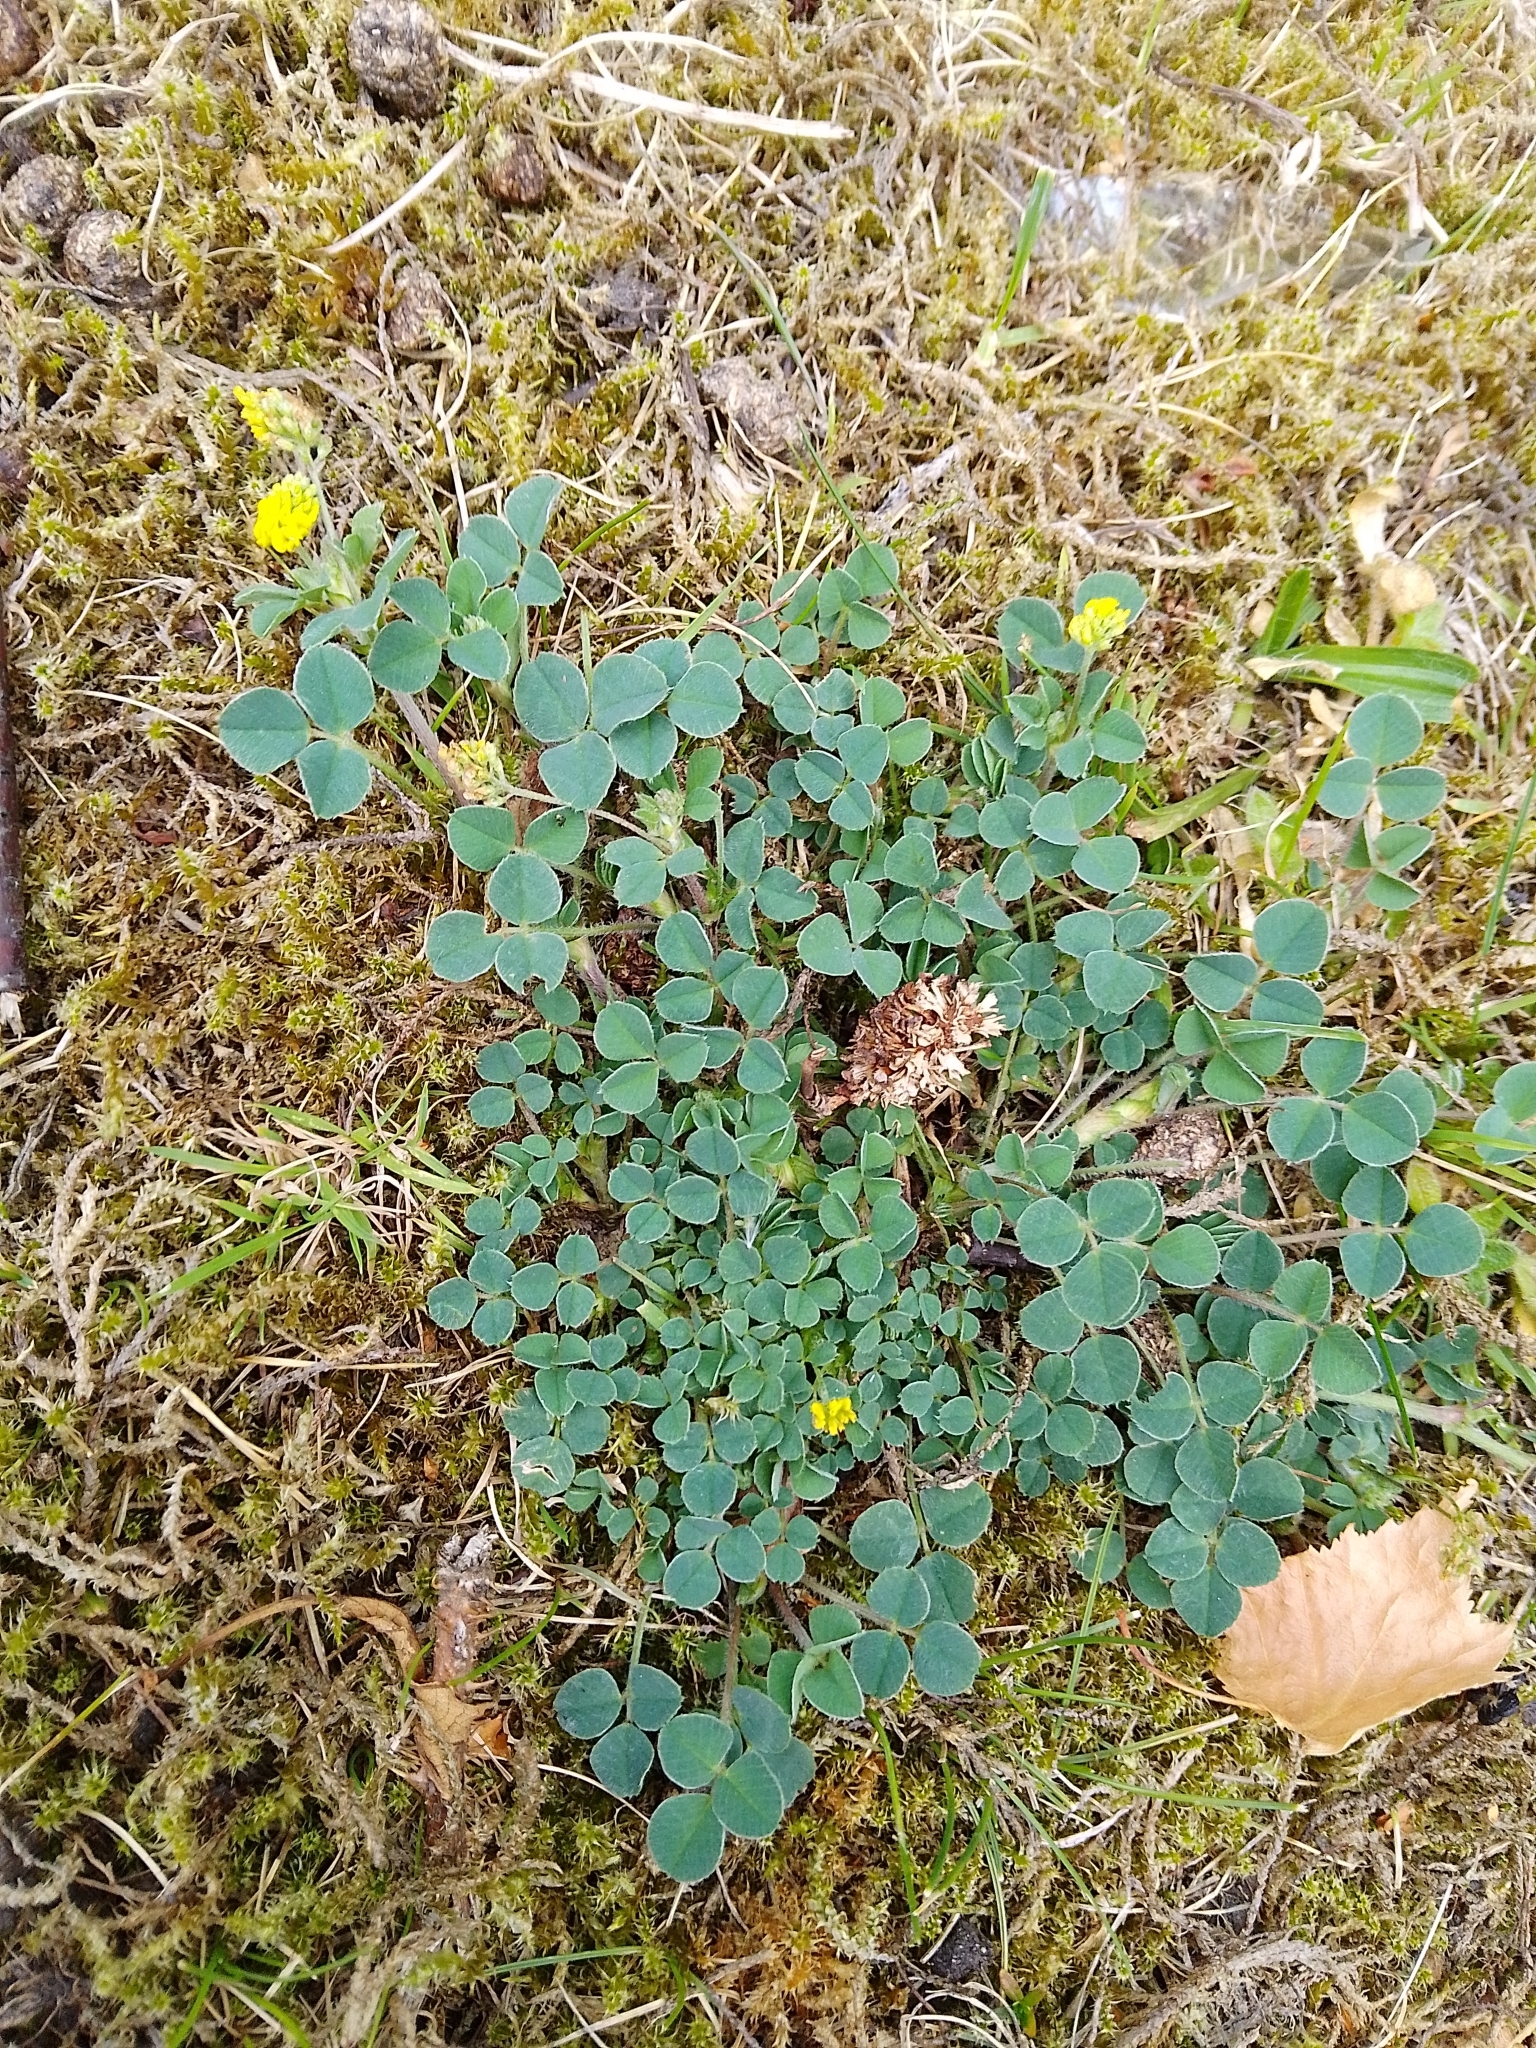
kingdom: Plantae
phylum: Tracheophyta
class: Magnoliopsida
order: Fabales
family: Fabaceae
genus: Medicago
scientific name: Medicago lupulina
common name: Black medick
